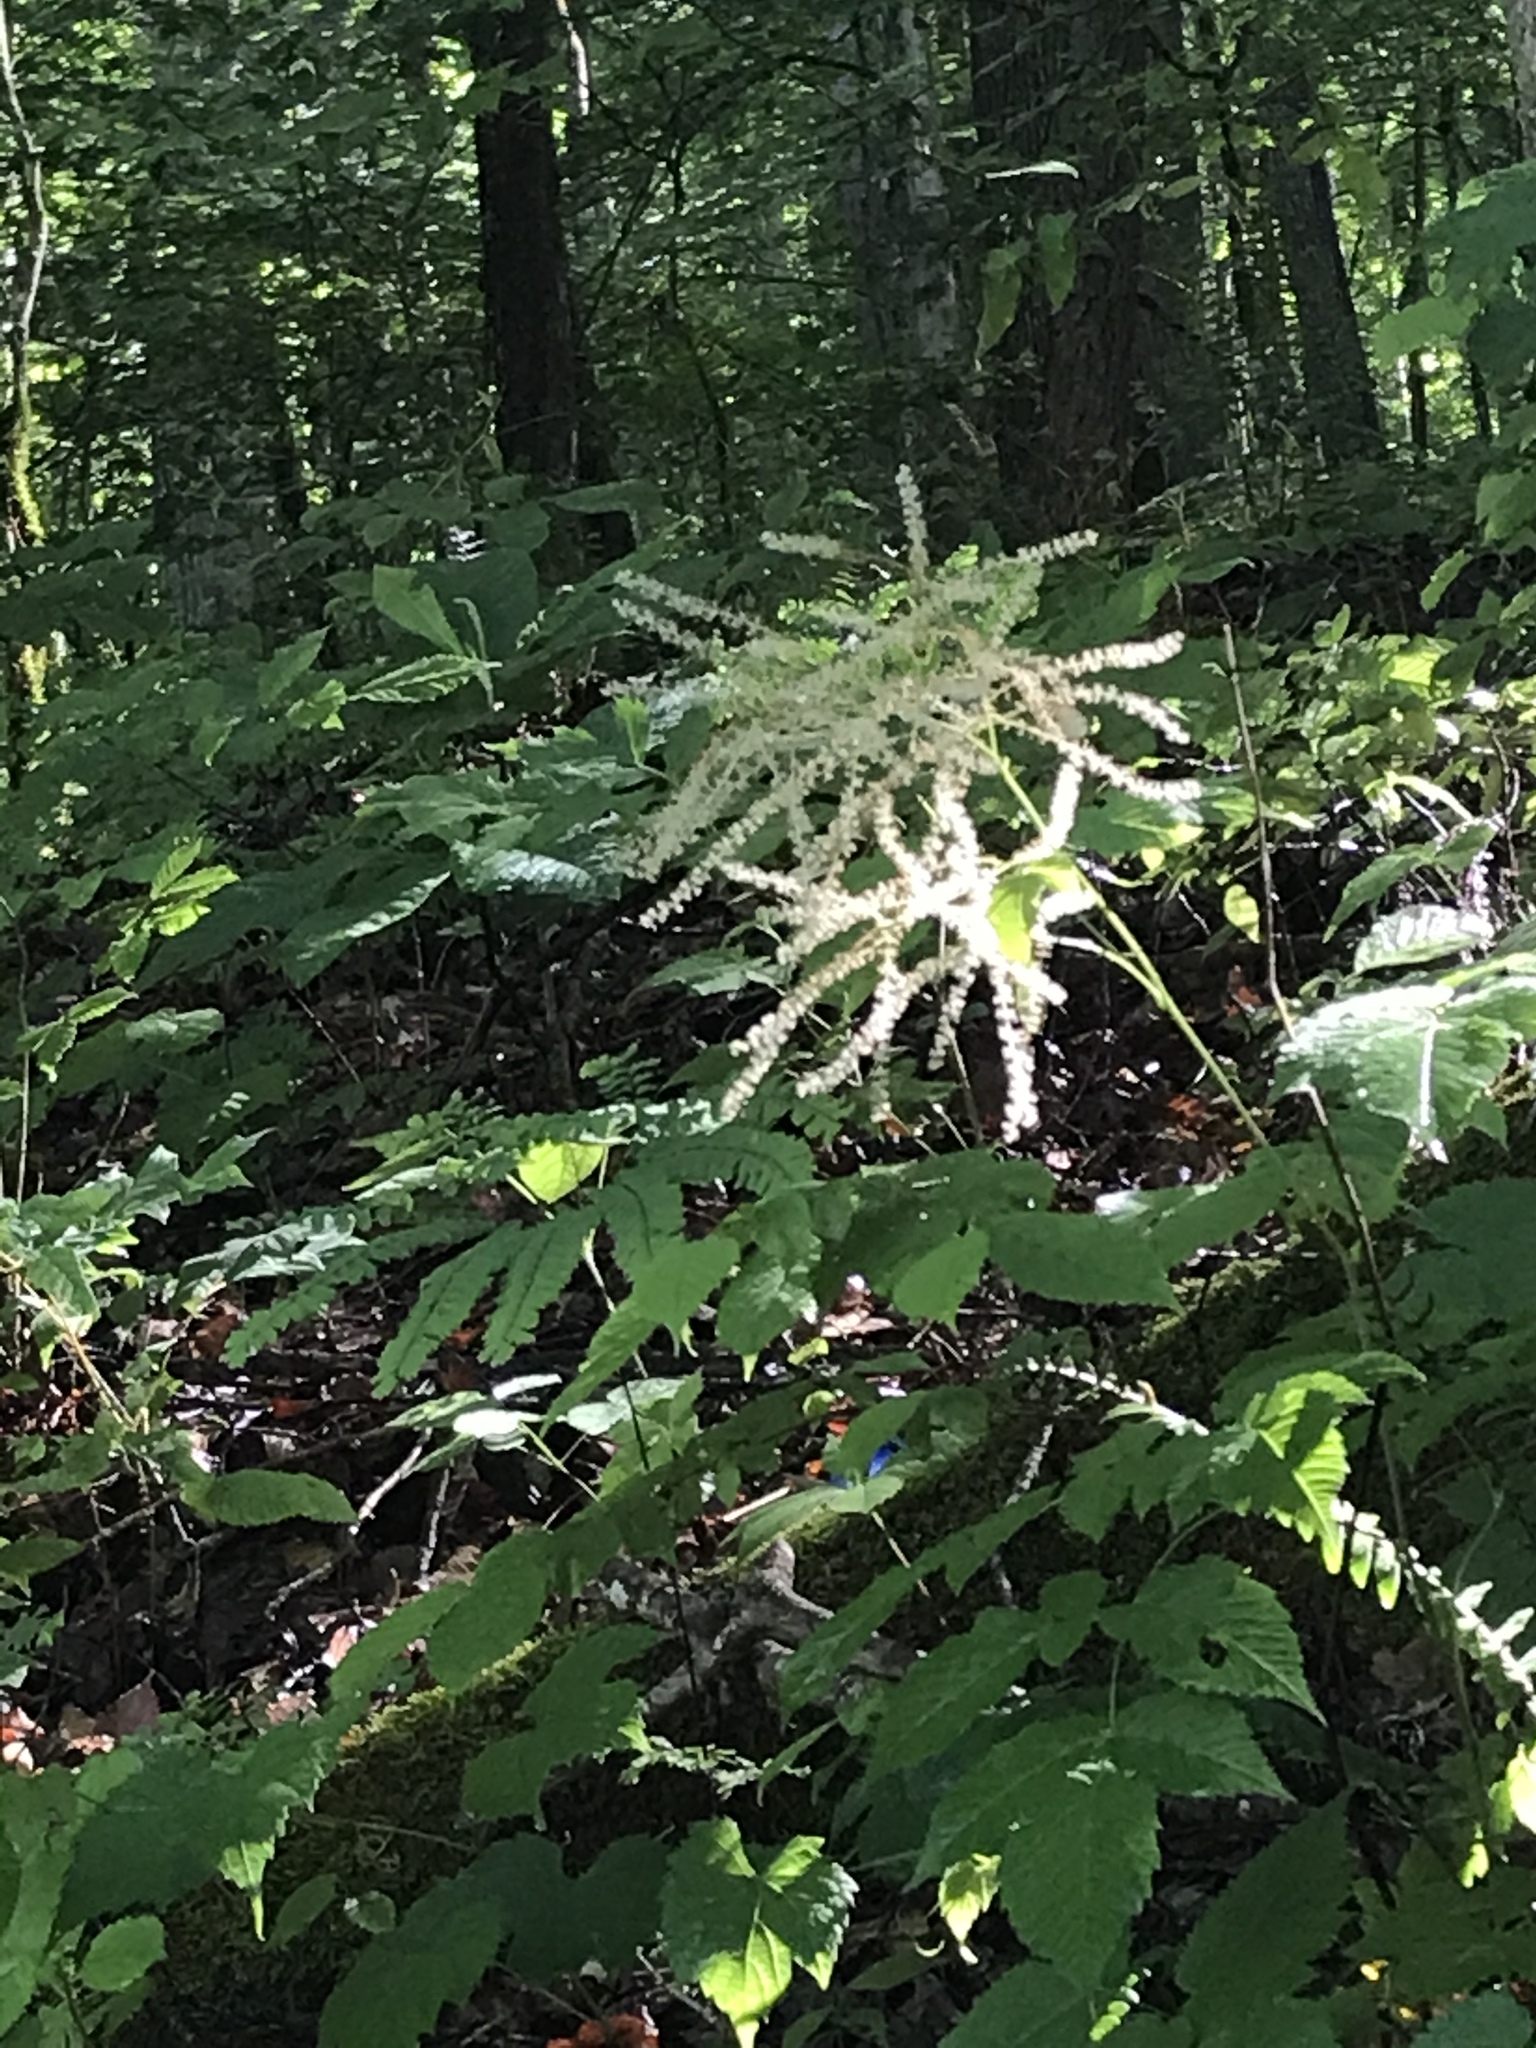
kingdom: Plantae
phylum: Tracheophyta
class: Magnoliopsida
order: Rosales
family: Rosaceae
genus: Aruncus
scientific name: Aruncus dioicus
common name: Buck's-beard
